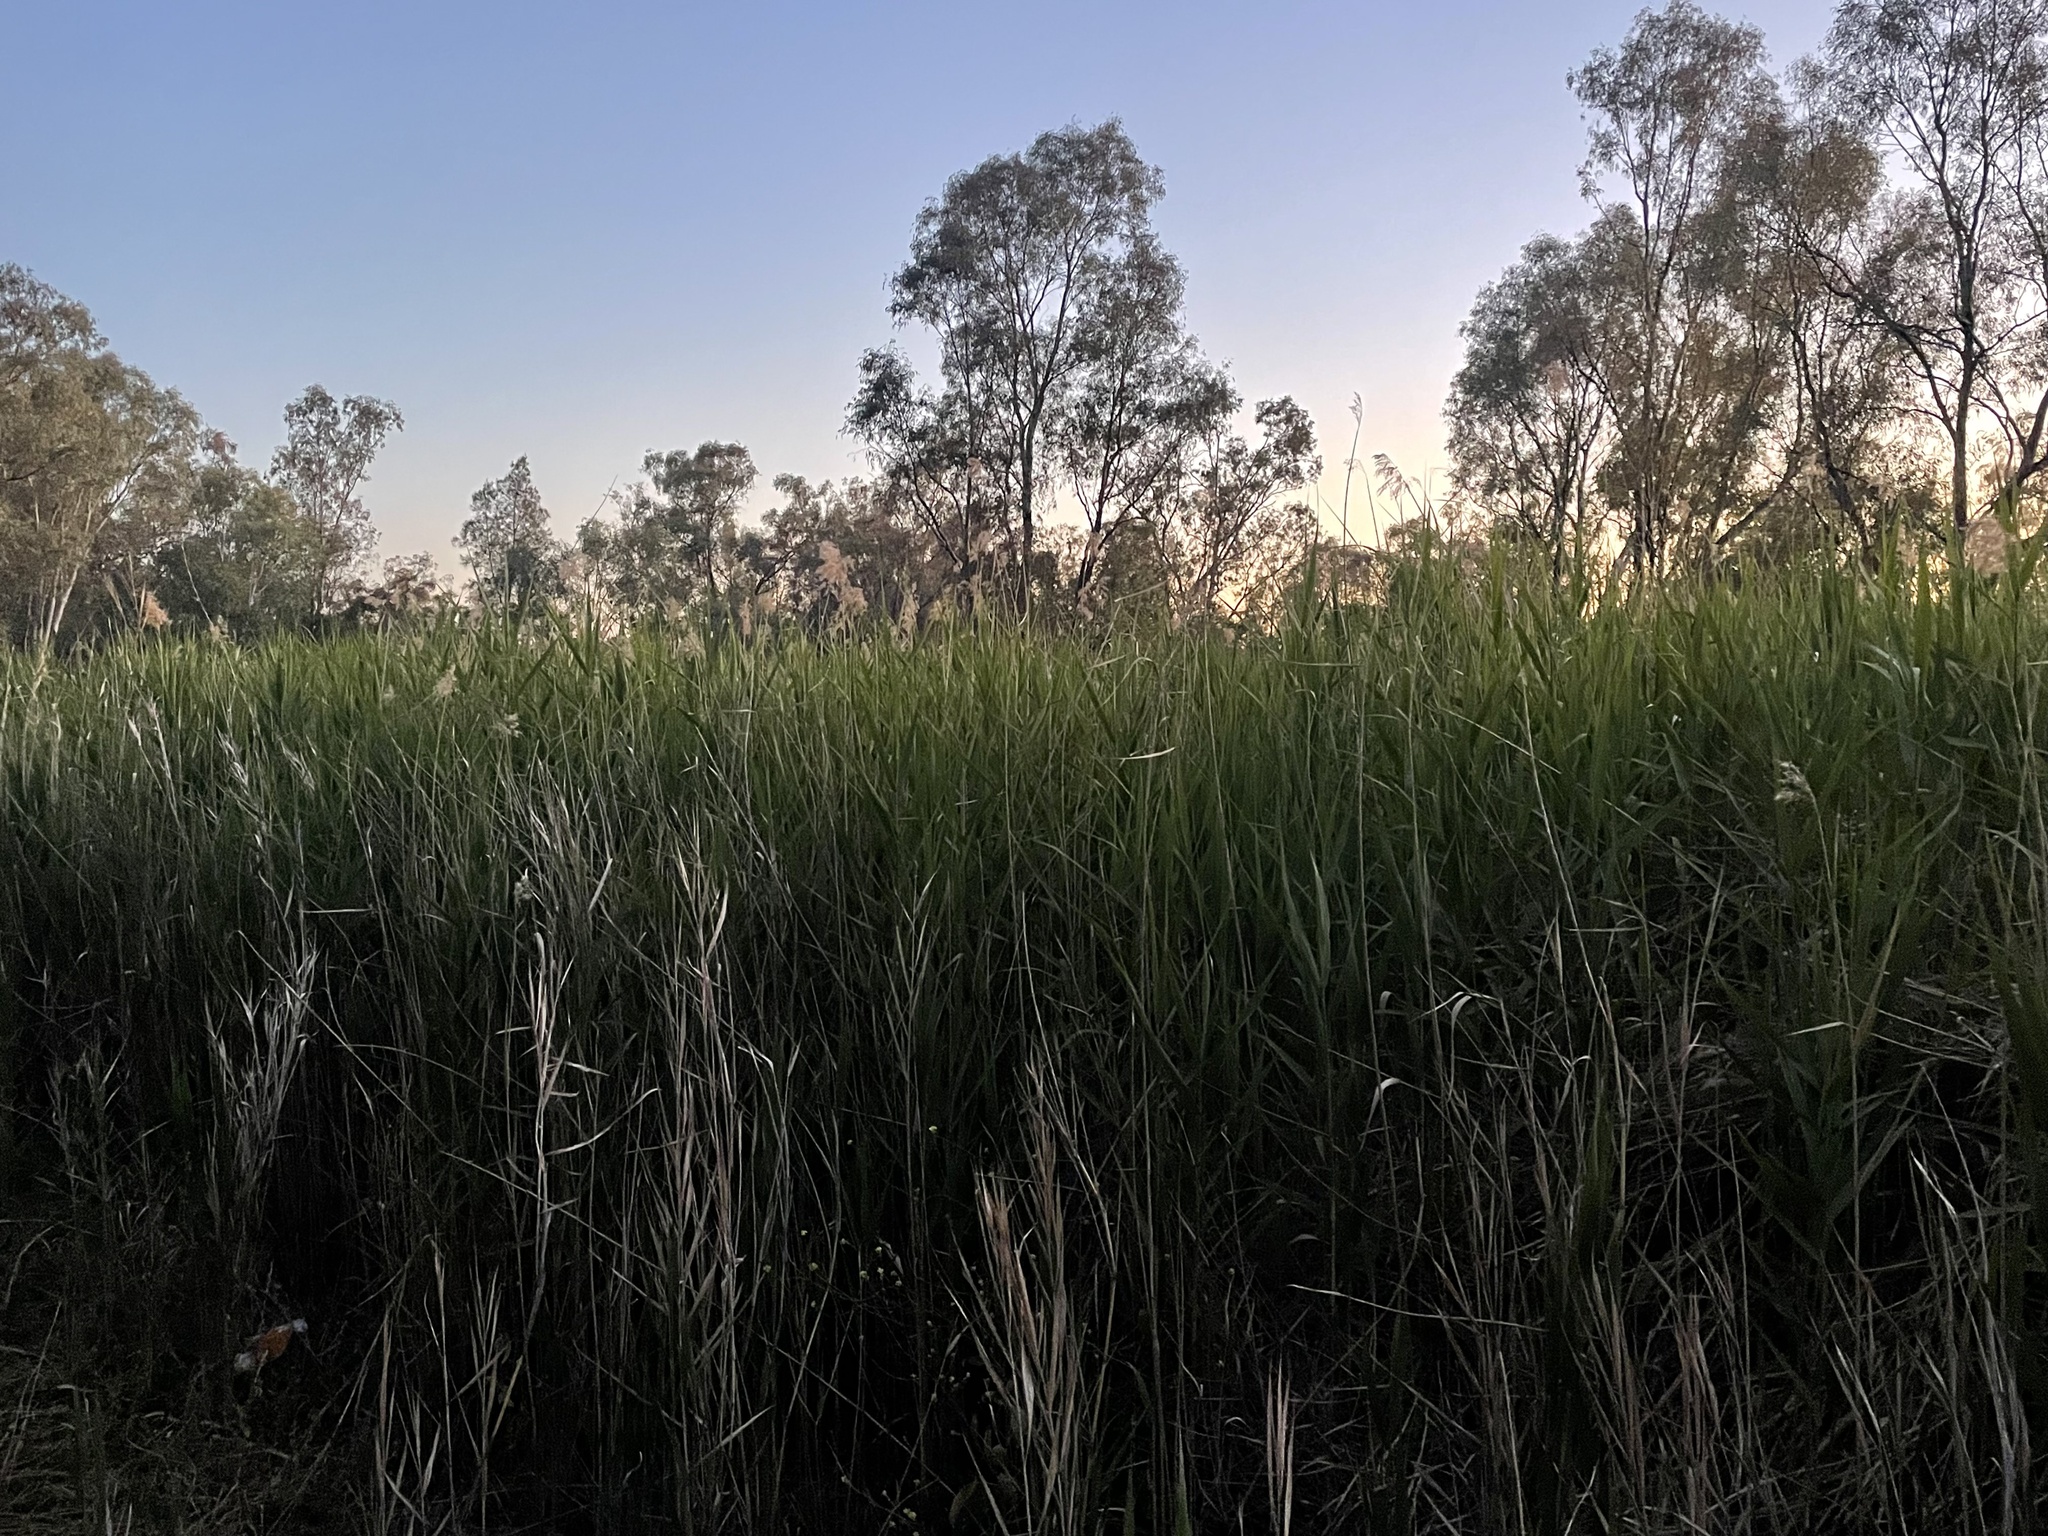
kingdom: Plantae
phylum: Tracheophyta
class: Liliopsida
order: Poales
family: Poaceae
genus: Phragmites
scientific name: Phragmites australis
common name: Common reed
